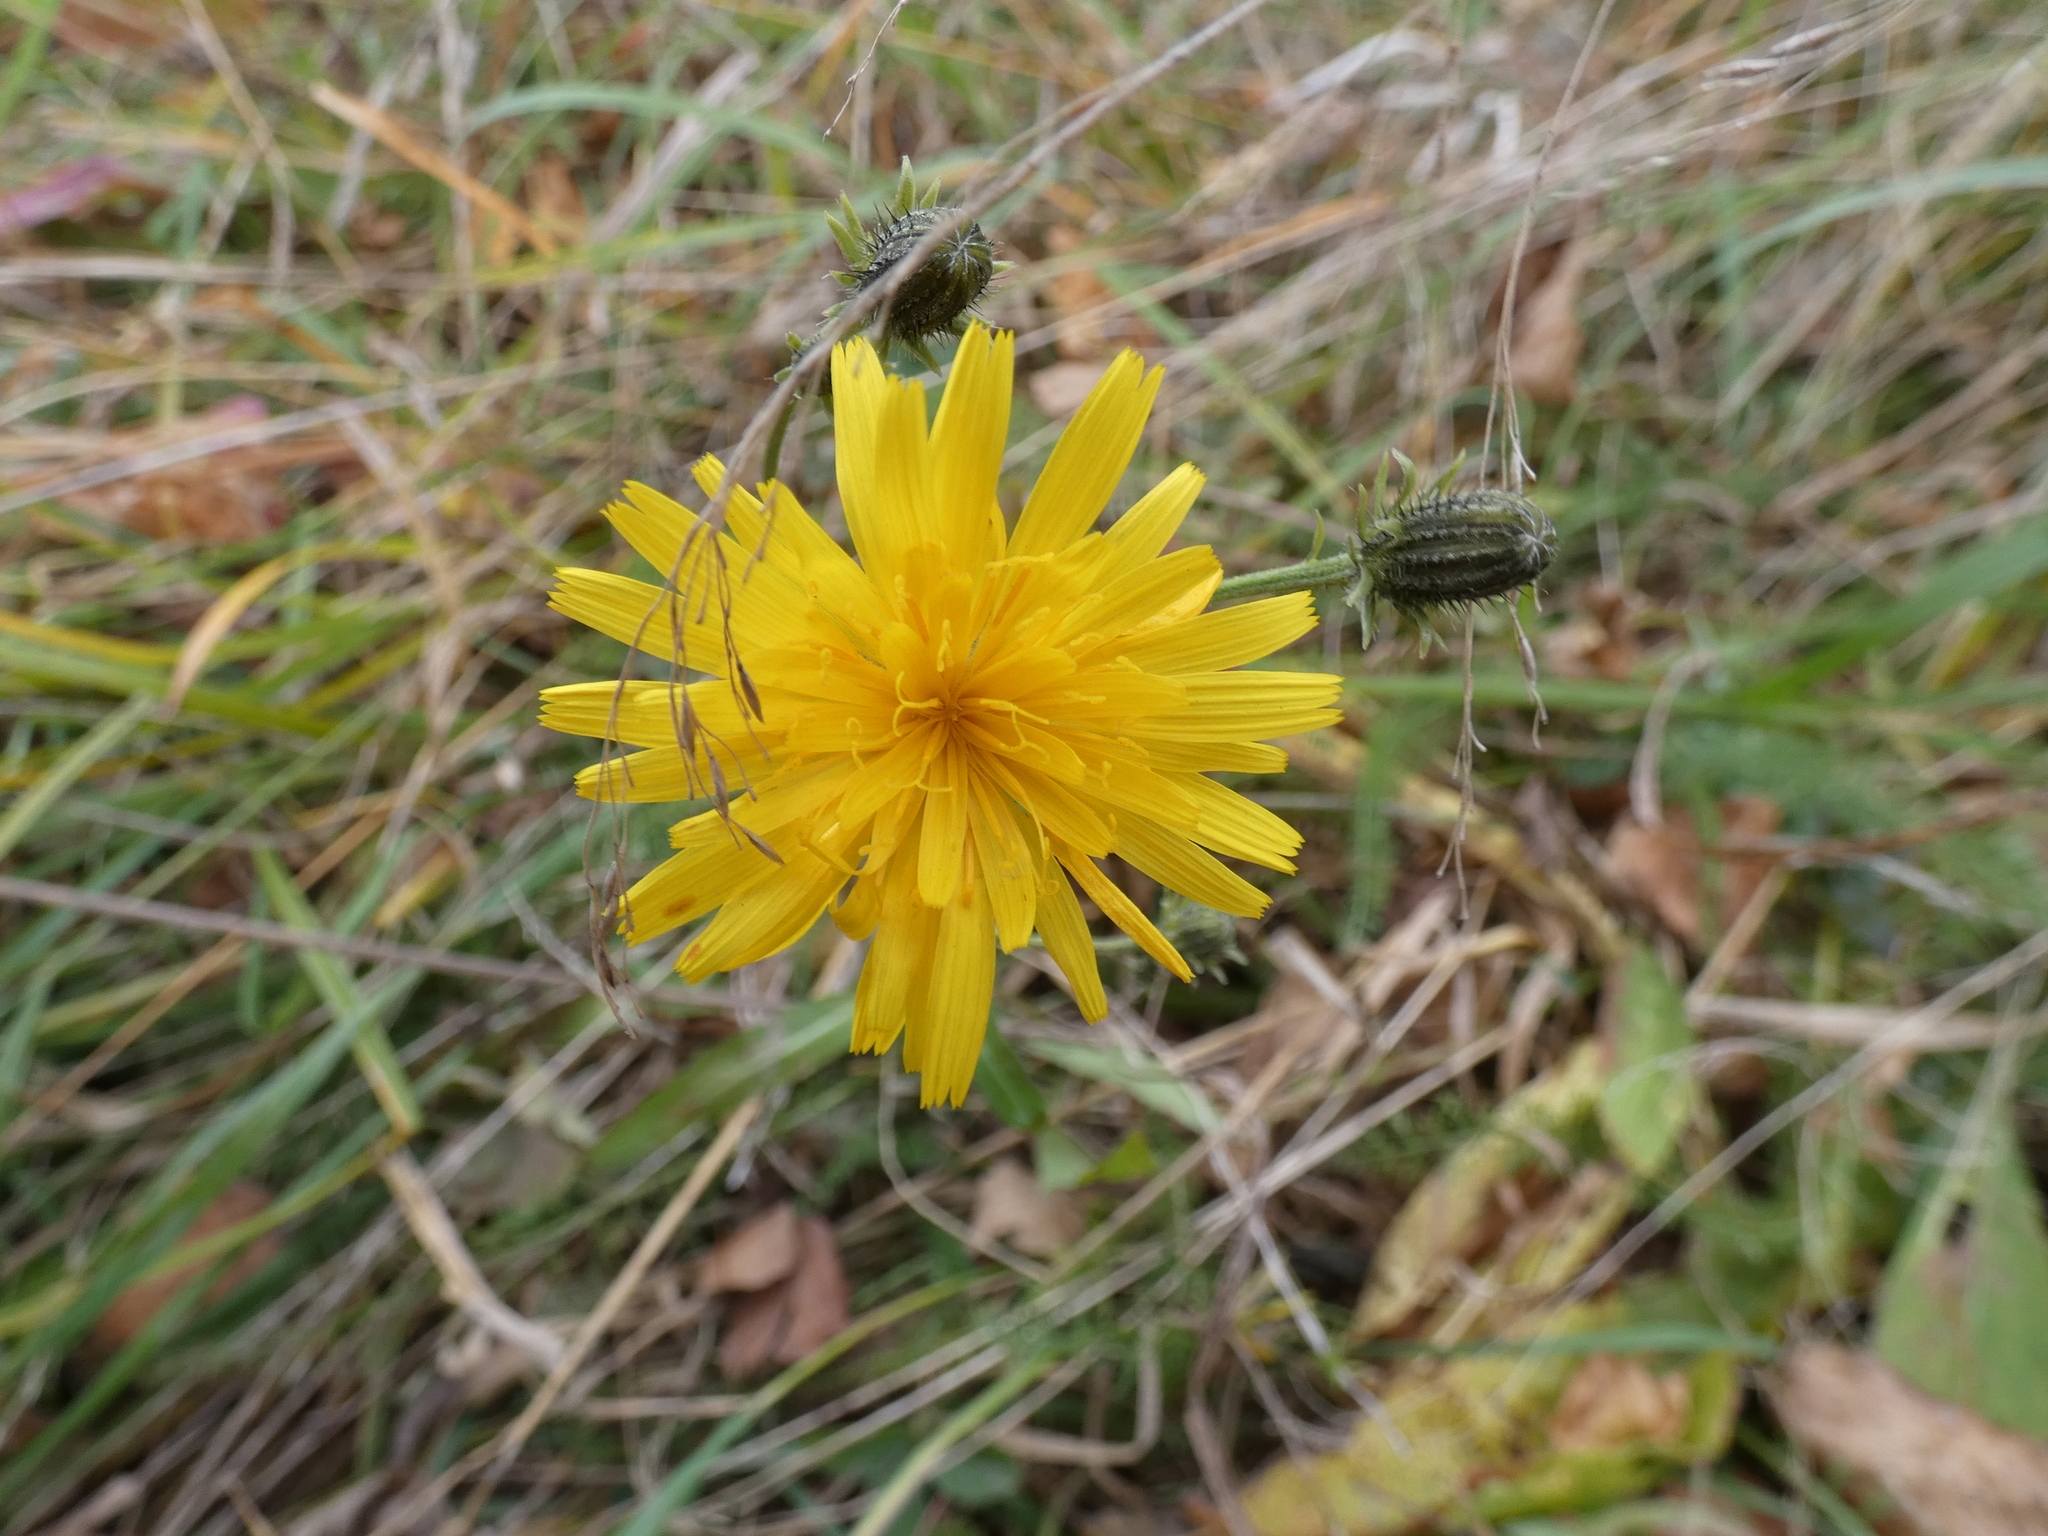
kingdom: Plantae
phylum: Tracheophyta
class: Magnoliopsida
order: Asterales
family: Asteraceae
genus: Picris
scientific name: Picris hieracioides
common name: Hawkweed oxtongue
